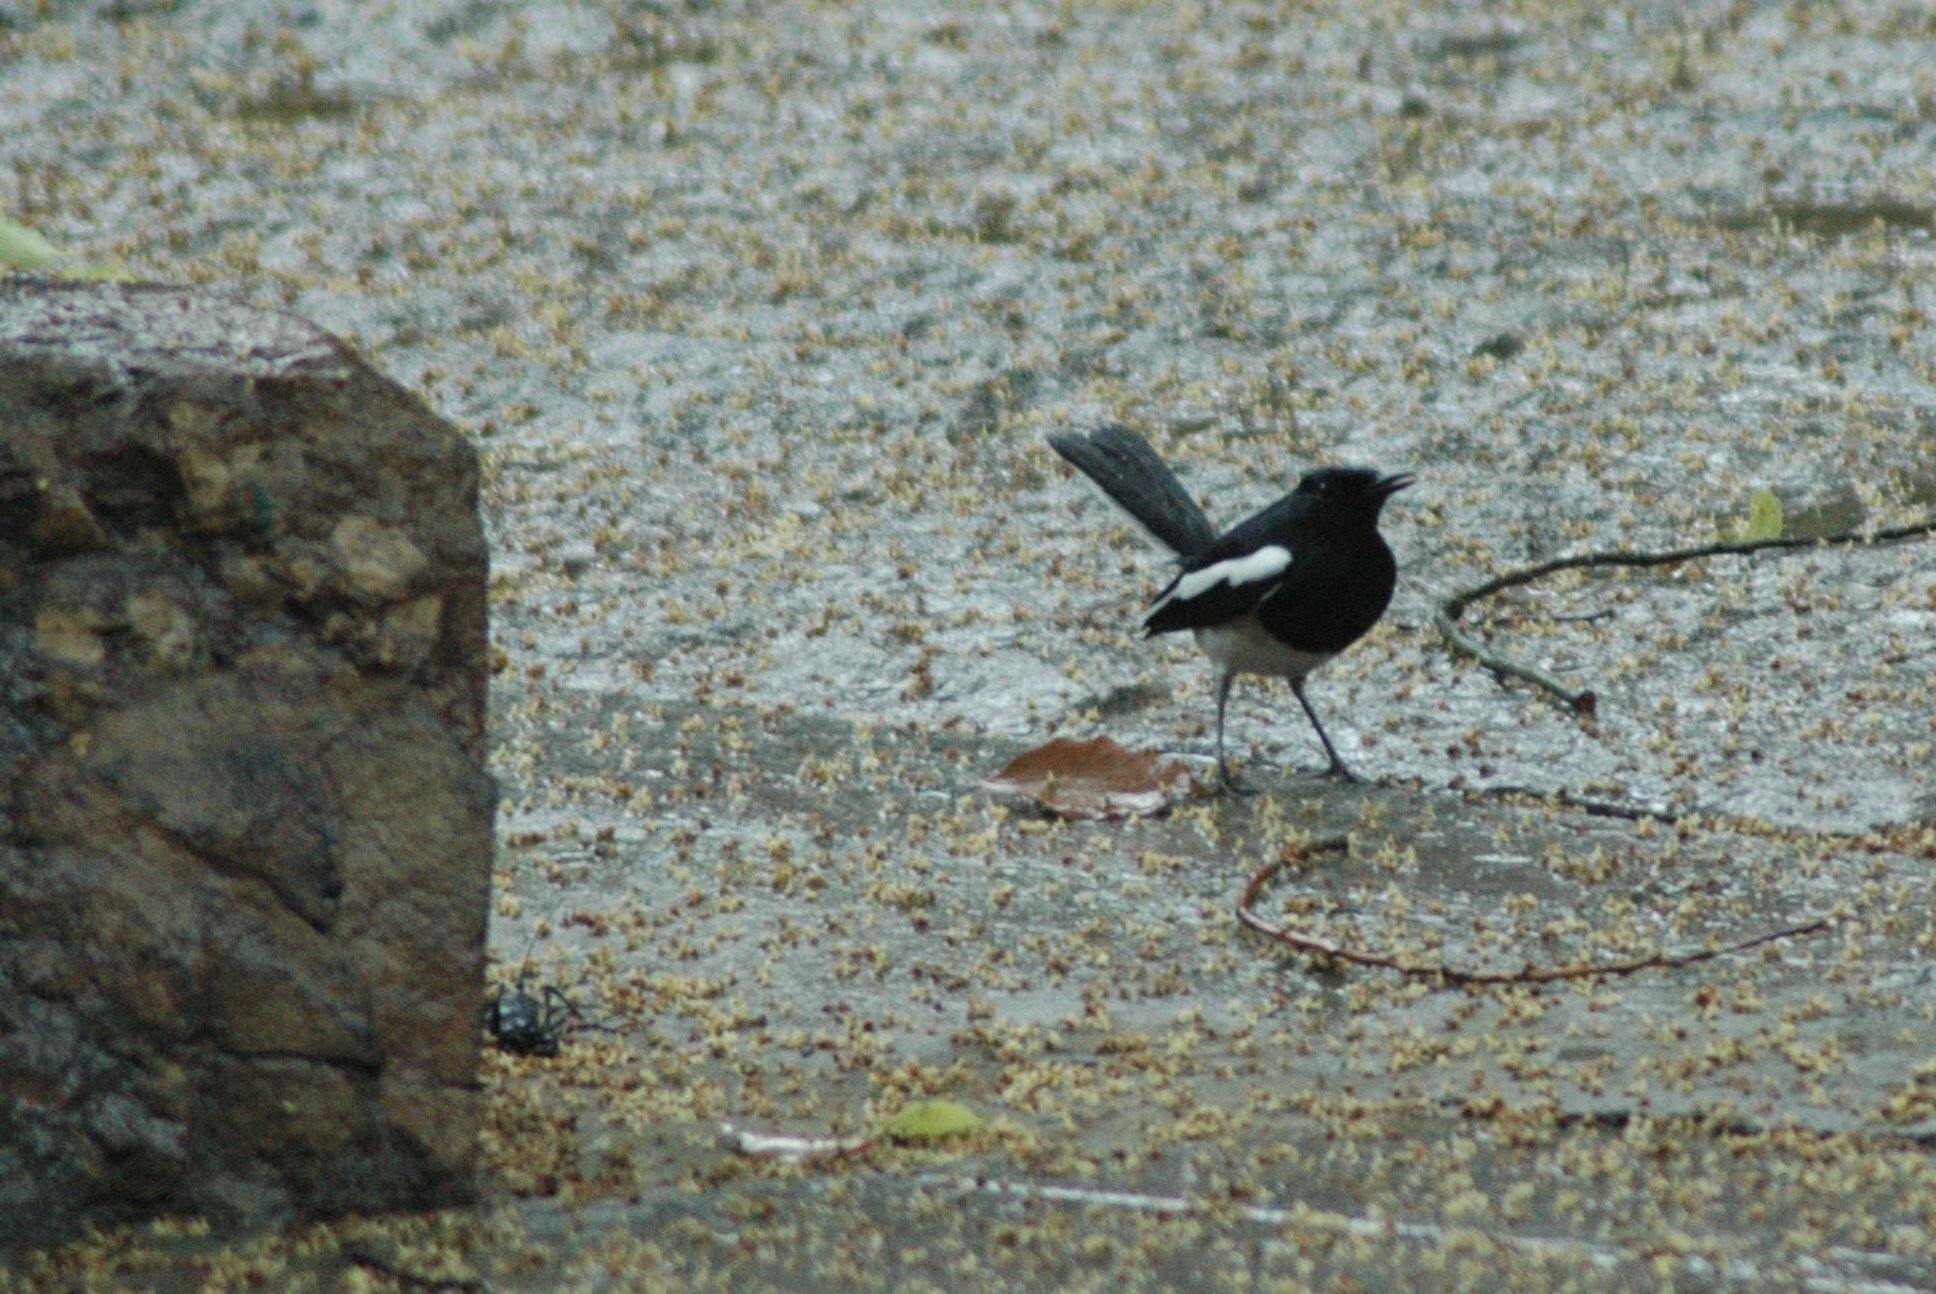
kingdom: Animalia
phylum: Chordata
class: Aves
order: Passeriformes
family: Muscicapidae
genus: Copsychus
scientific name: Copsychus saularis
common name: Oriental magpie-robin
